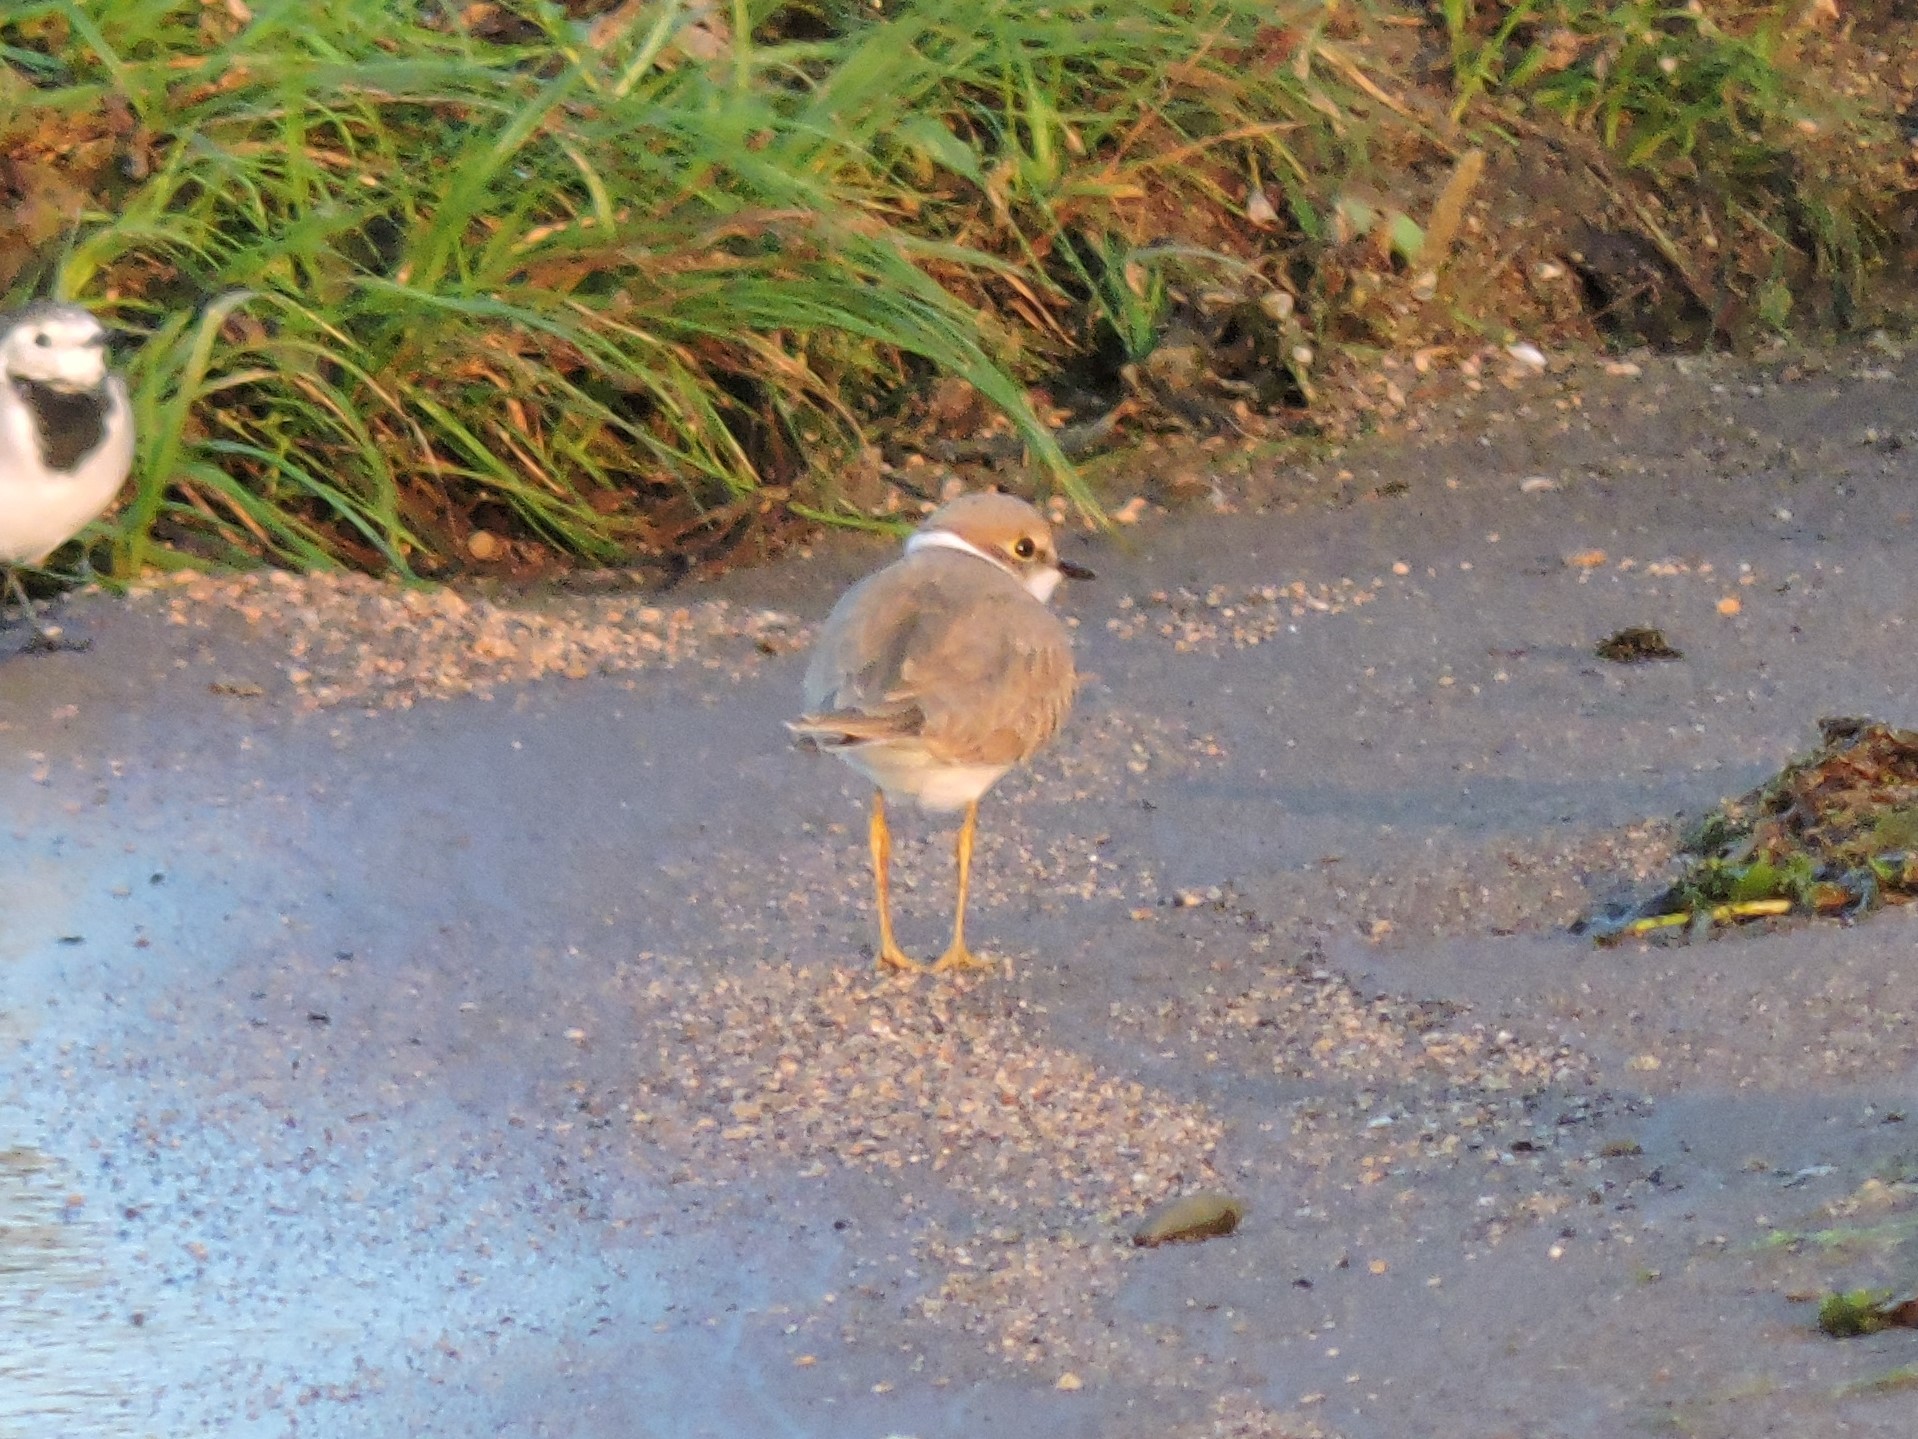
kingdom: Animalia
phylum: Chordata
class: Aves
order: Charadriiformes
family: Charadriidae
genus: Charadrius
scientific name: Charadrius dubius
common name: Little ringed plover
